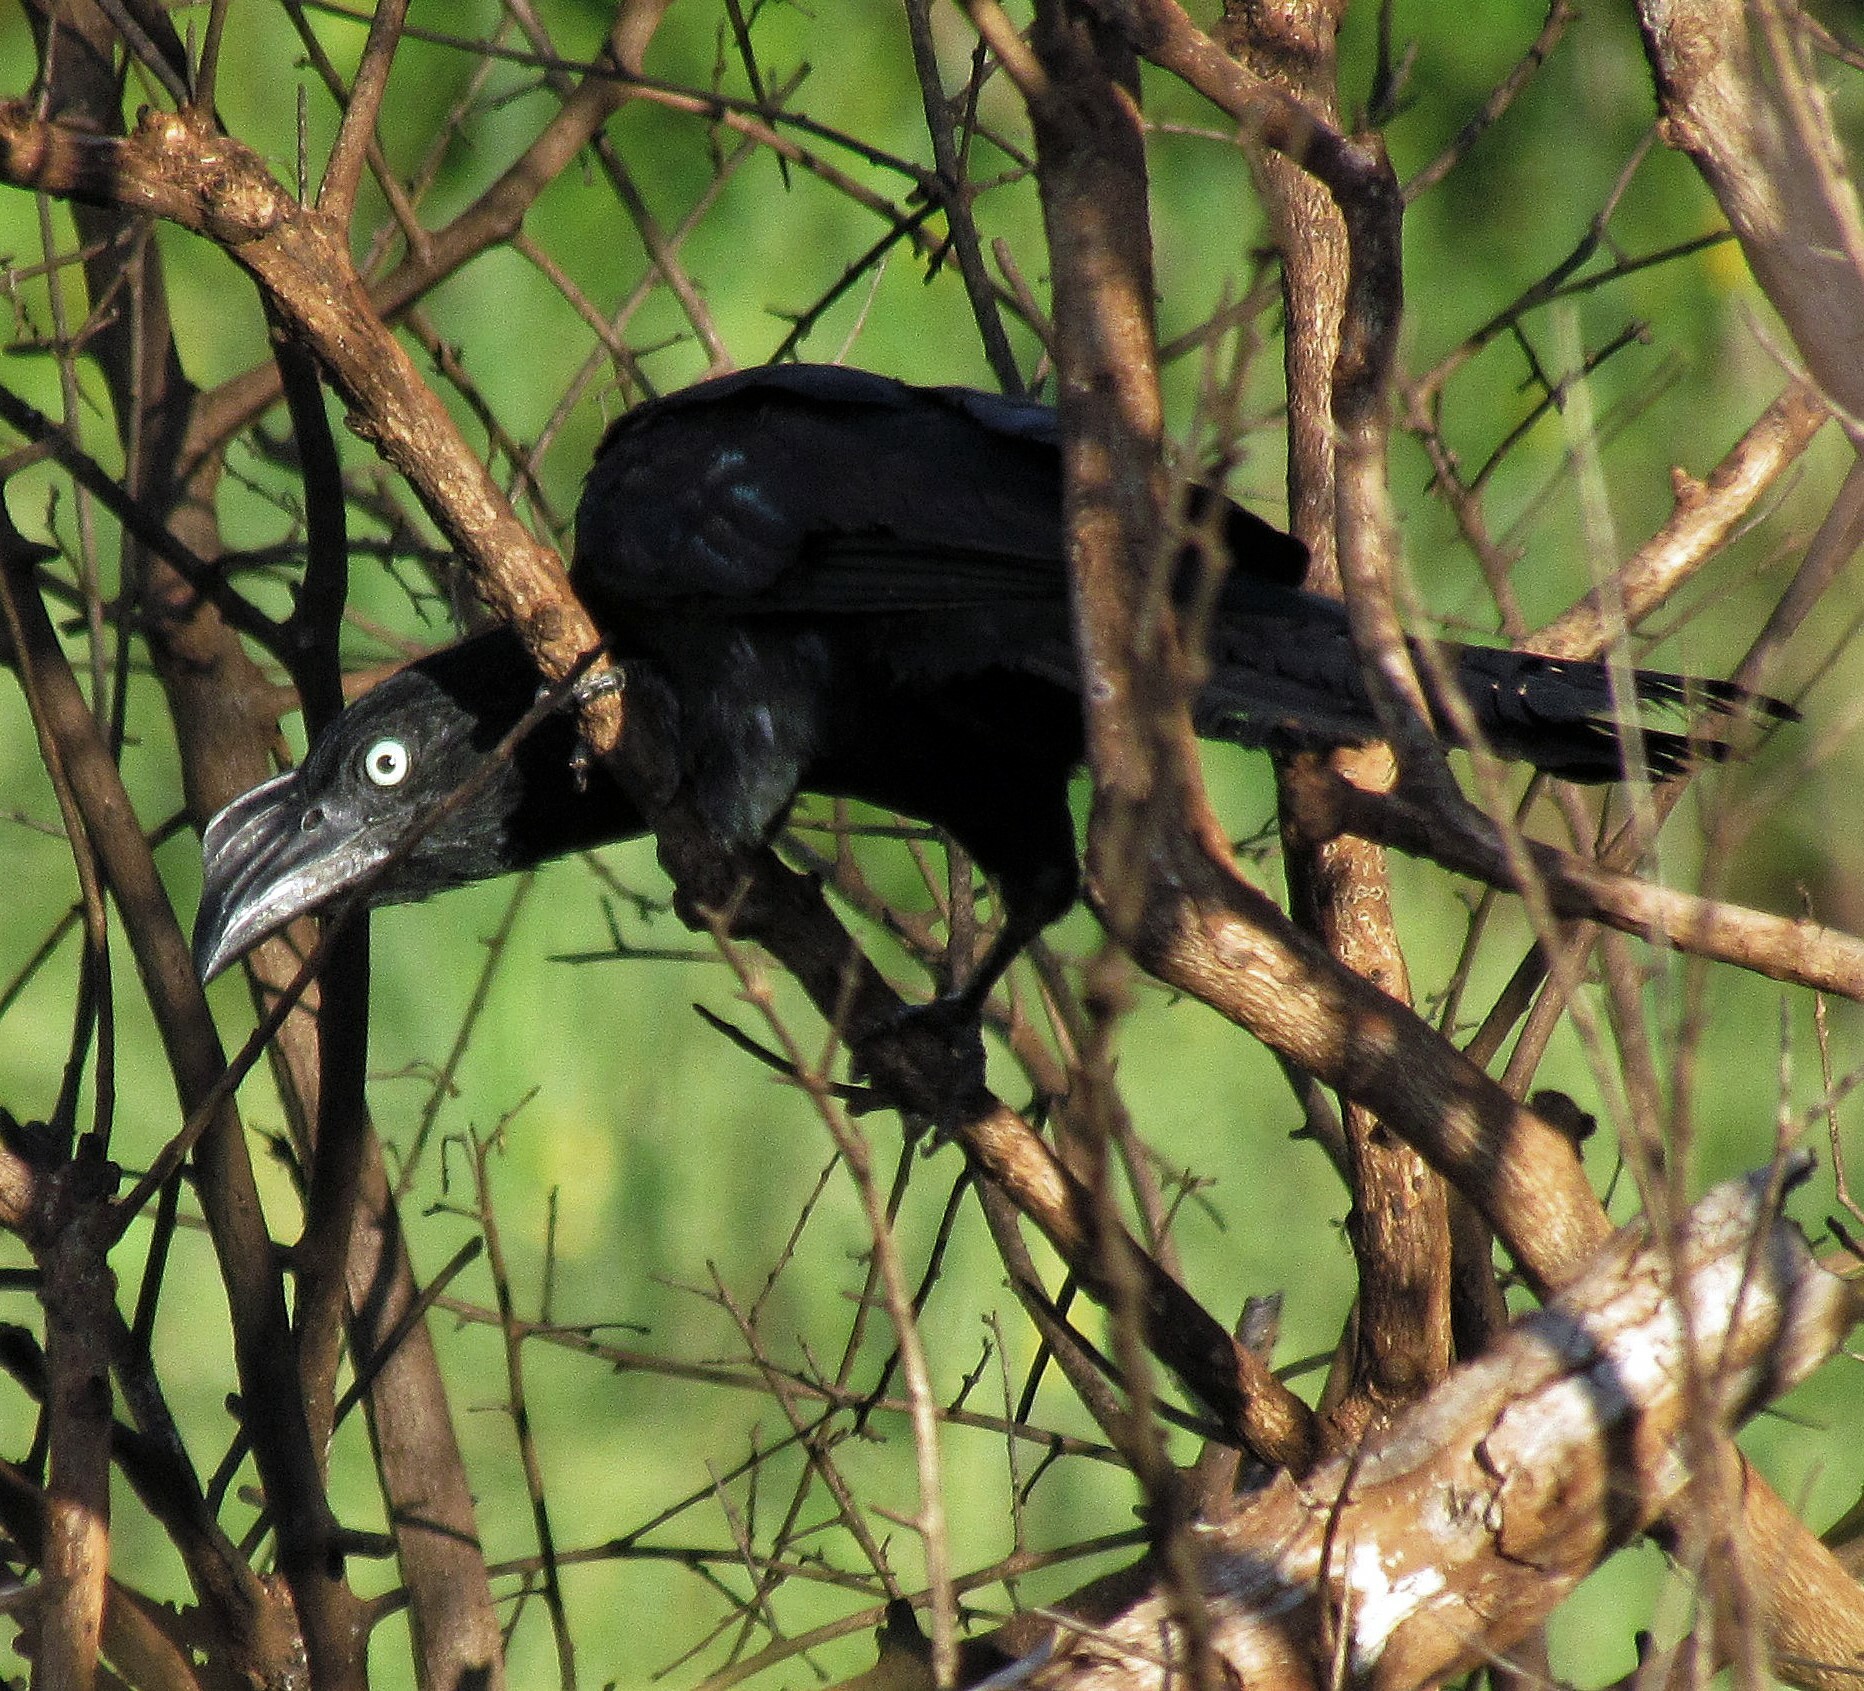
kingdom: Animalia
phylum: Chordata
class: Aves
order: Cuculiformes
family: Cuculidae
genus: Crotophaga
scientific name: Crotophaga major
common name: Greater ani
